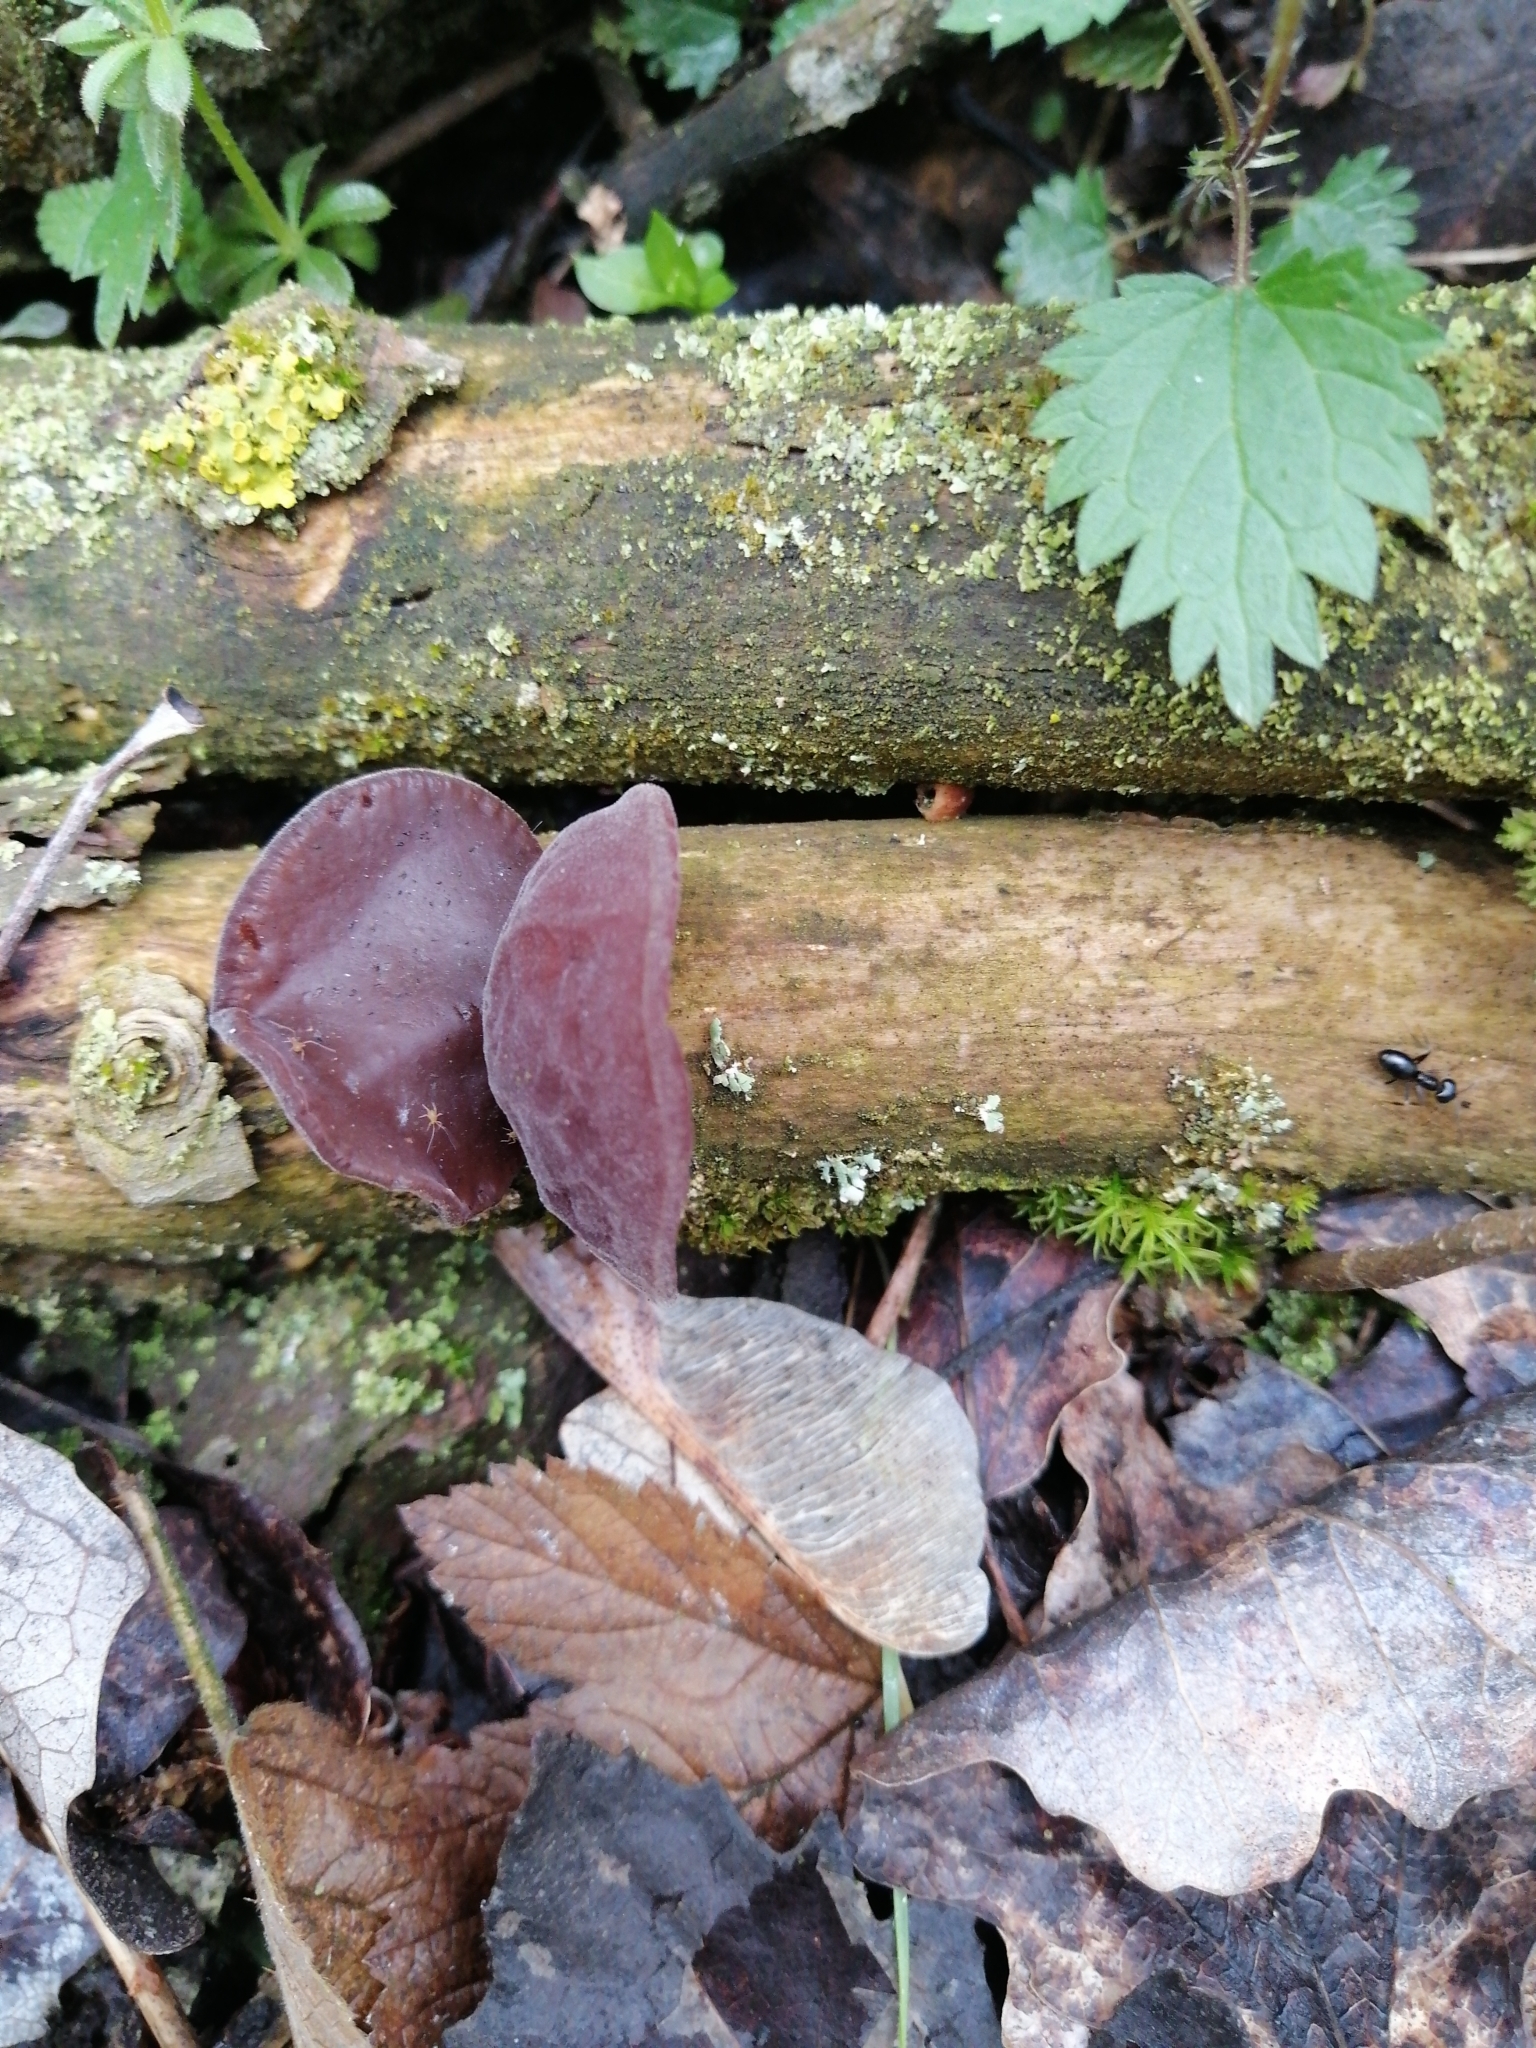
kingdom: Fungi
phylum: Basidiomycota
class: Agaricomycetes
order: Auriculariales
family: Auriculariaceae
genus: Auricularia
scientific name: Auricularia auricula-judae
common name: Jelly ear
